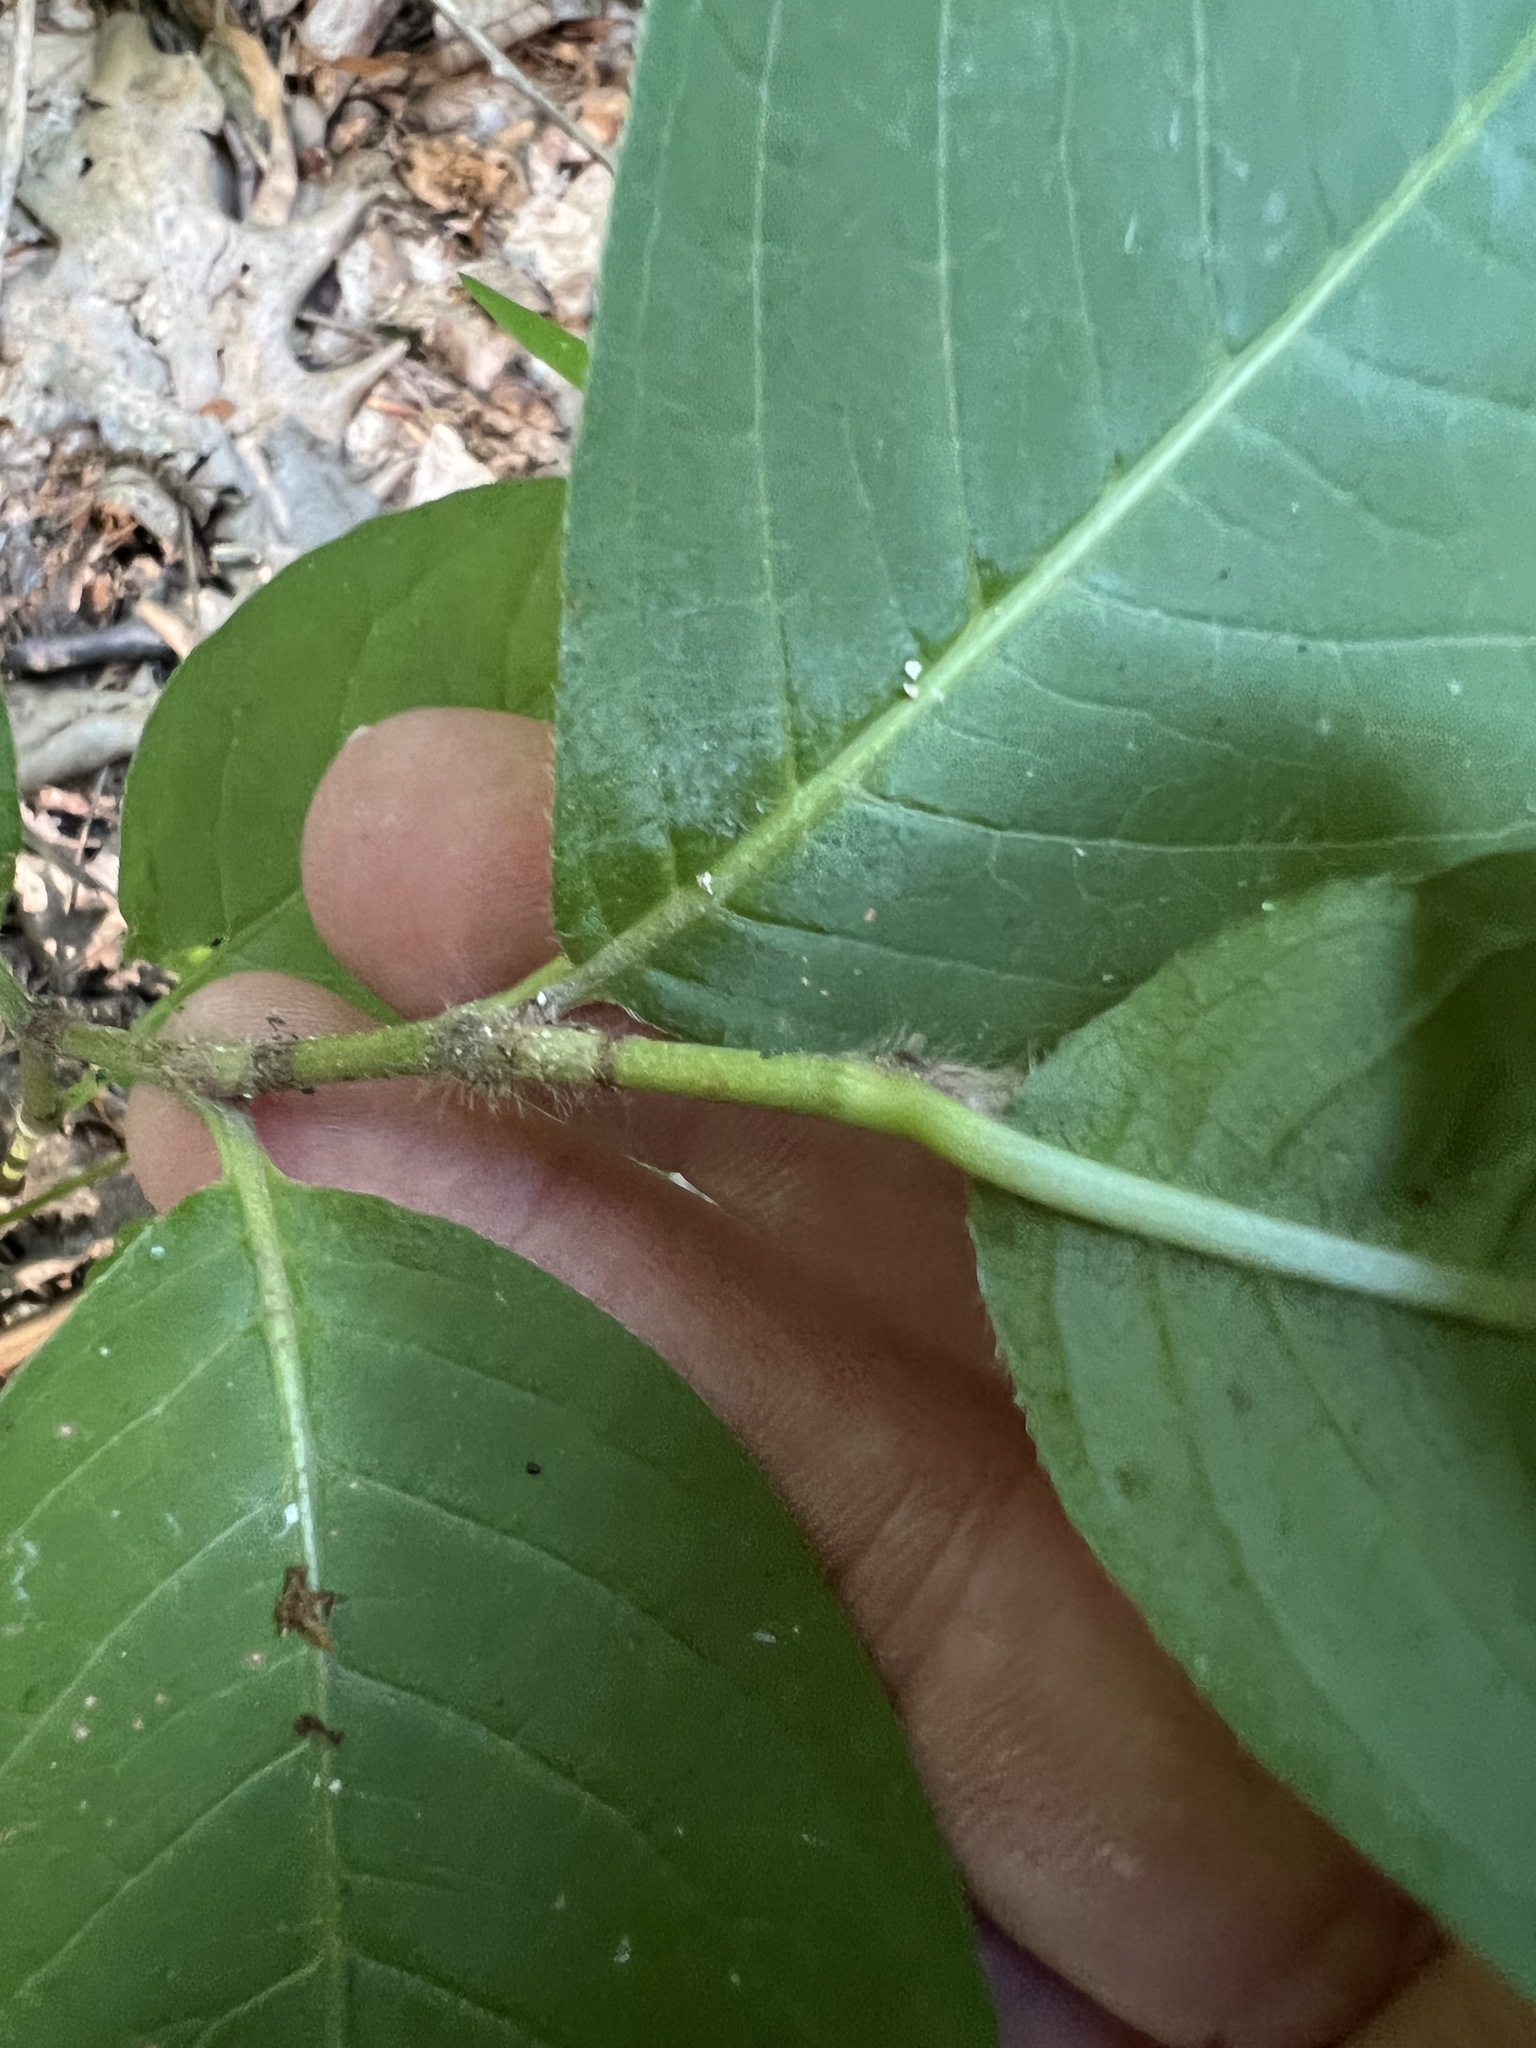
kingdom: Plantae
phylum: Tracheophyta
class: Magnoliopsida
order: Caryophyllales
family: Polygonaceae
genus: Persicaria
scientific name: Persicaria virginiana
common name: Jumpseed
